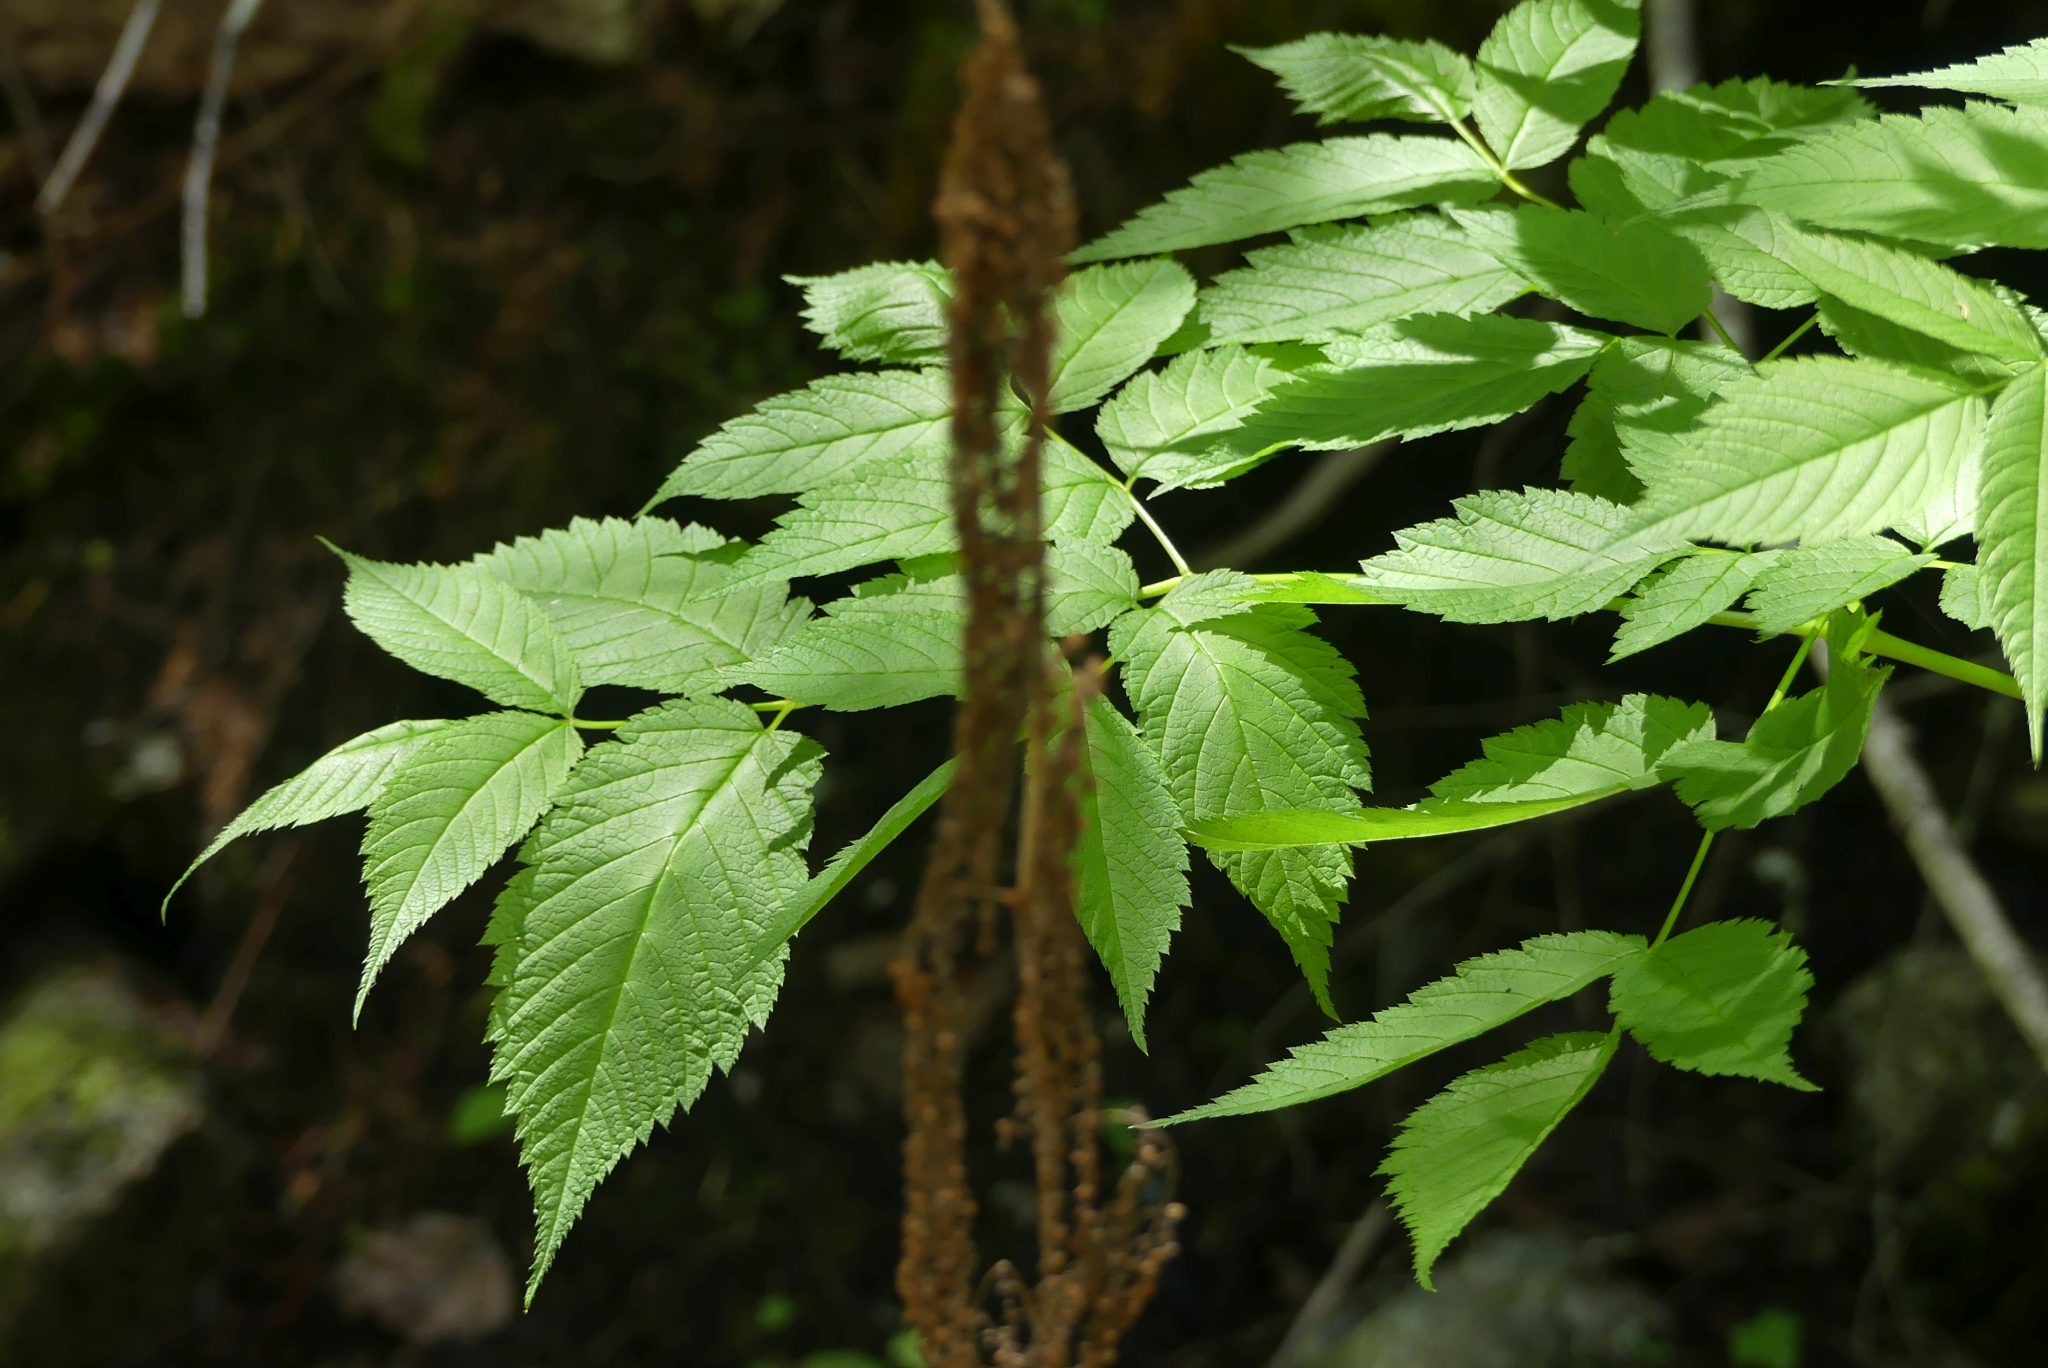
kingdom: Plantae
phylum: Tracheophyta
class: Magnoliopsida
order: Rosales
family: Rosaceae
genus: Aruncus
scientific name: Aruncus dioicus
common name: Buck's-beard
